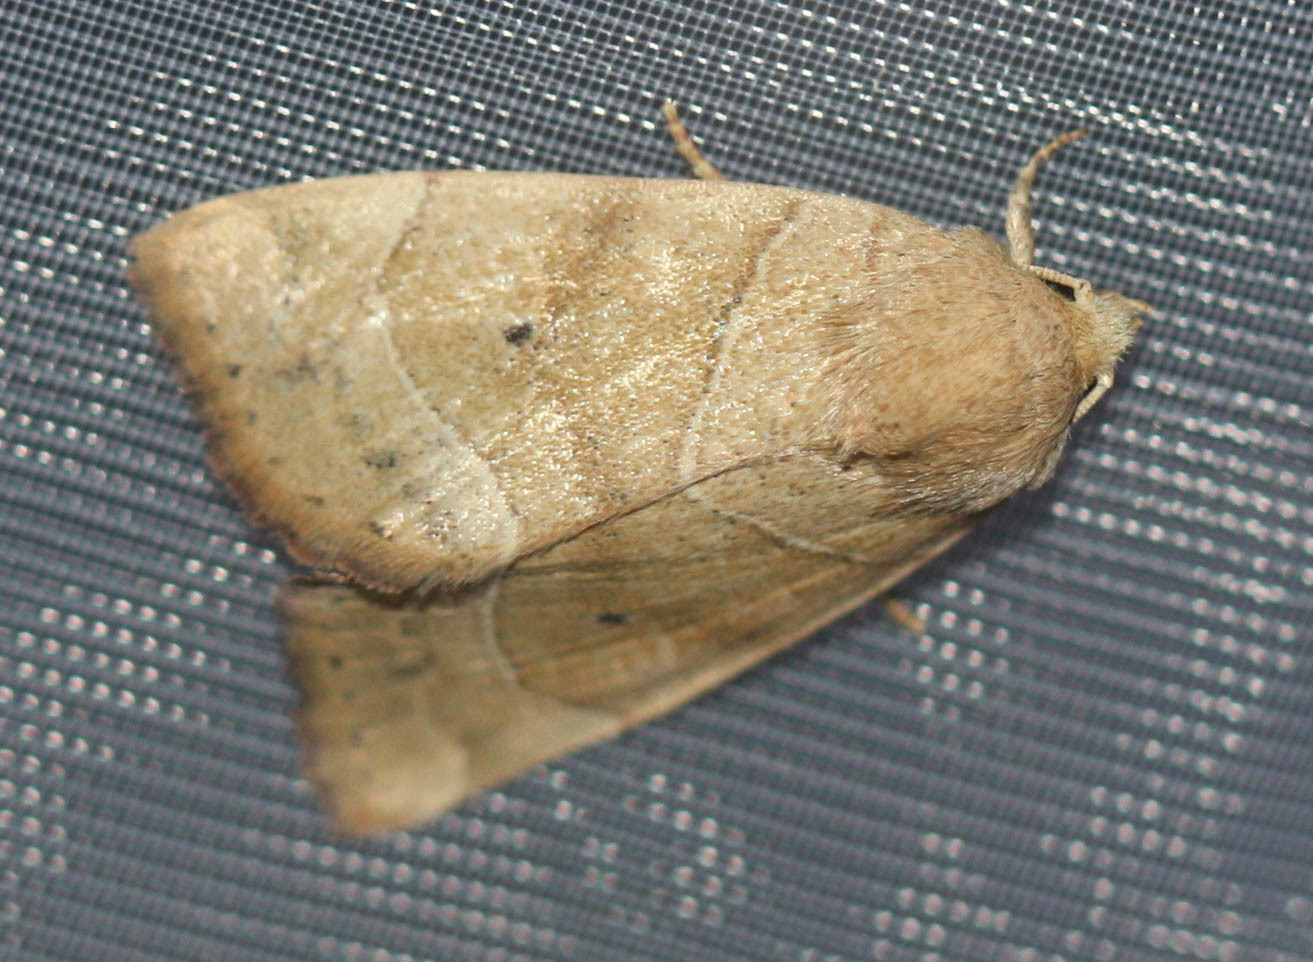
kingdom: Animalia
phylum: Arthropoda
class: Insecta
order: Lepidoptera
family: Noctuidae
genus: Cosmia
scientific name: Cosmia trapezina
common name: Dun-bar
